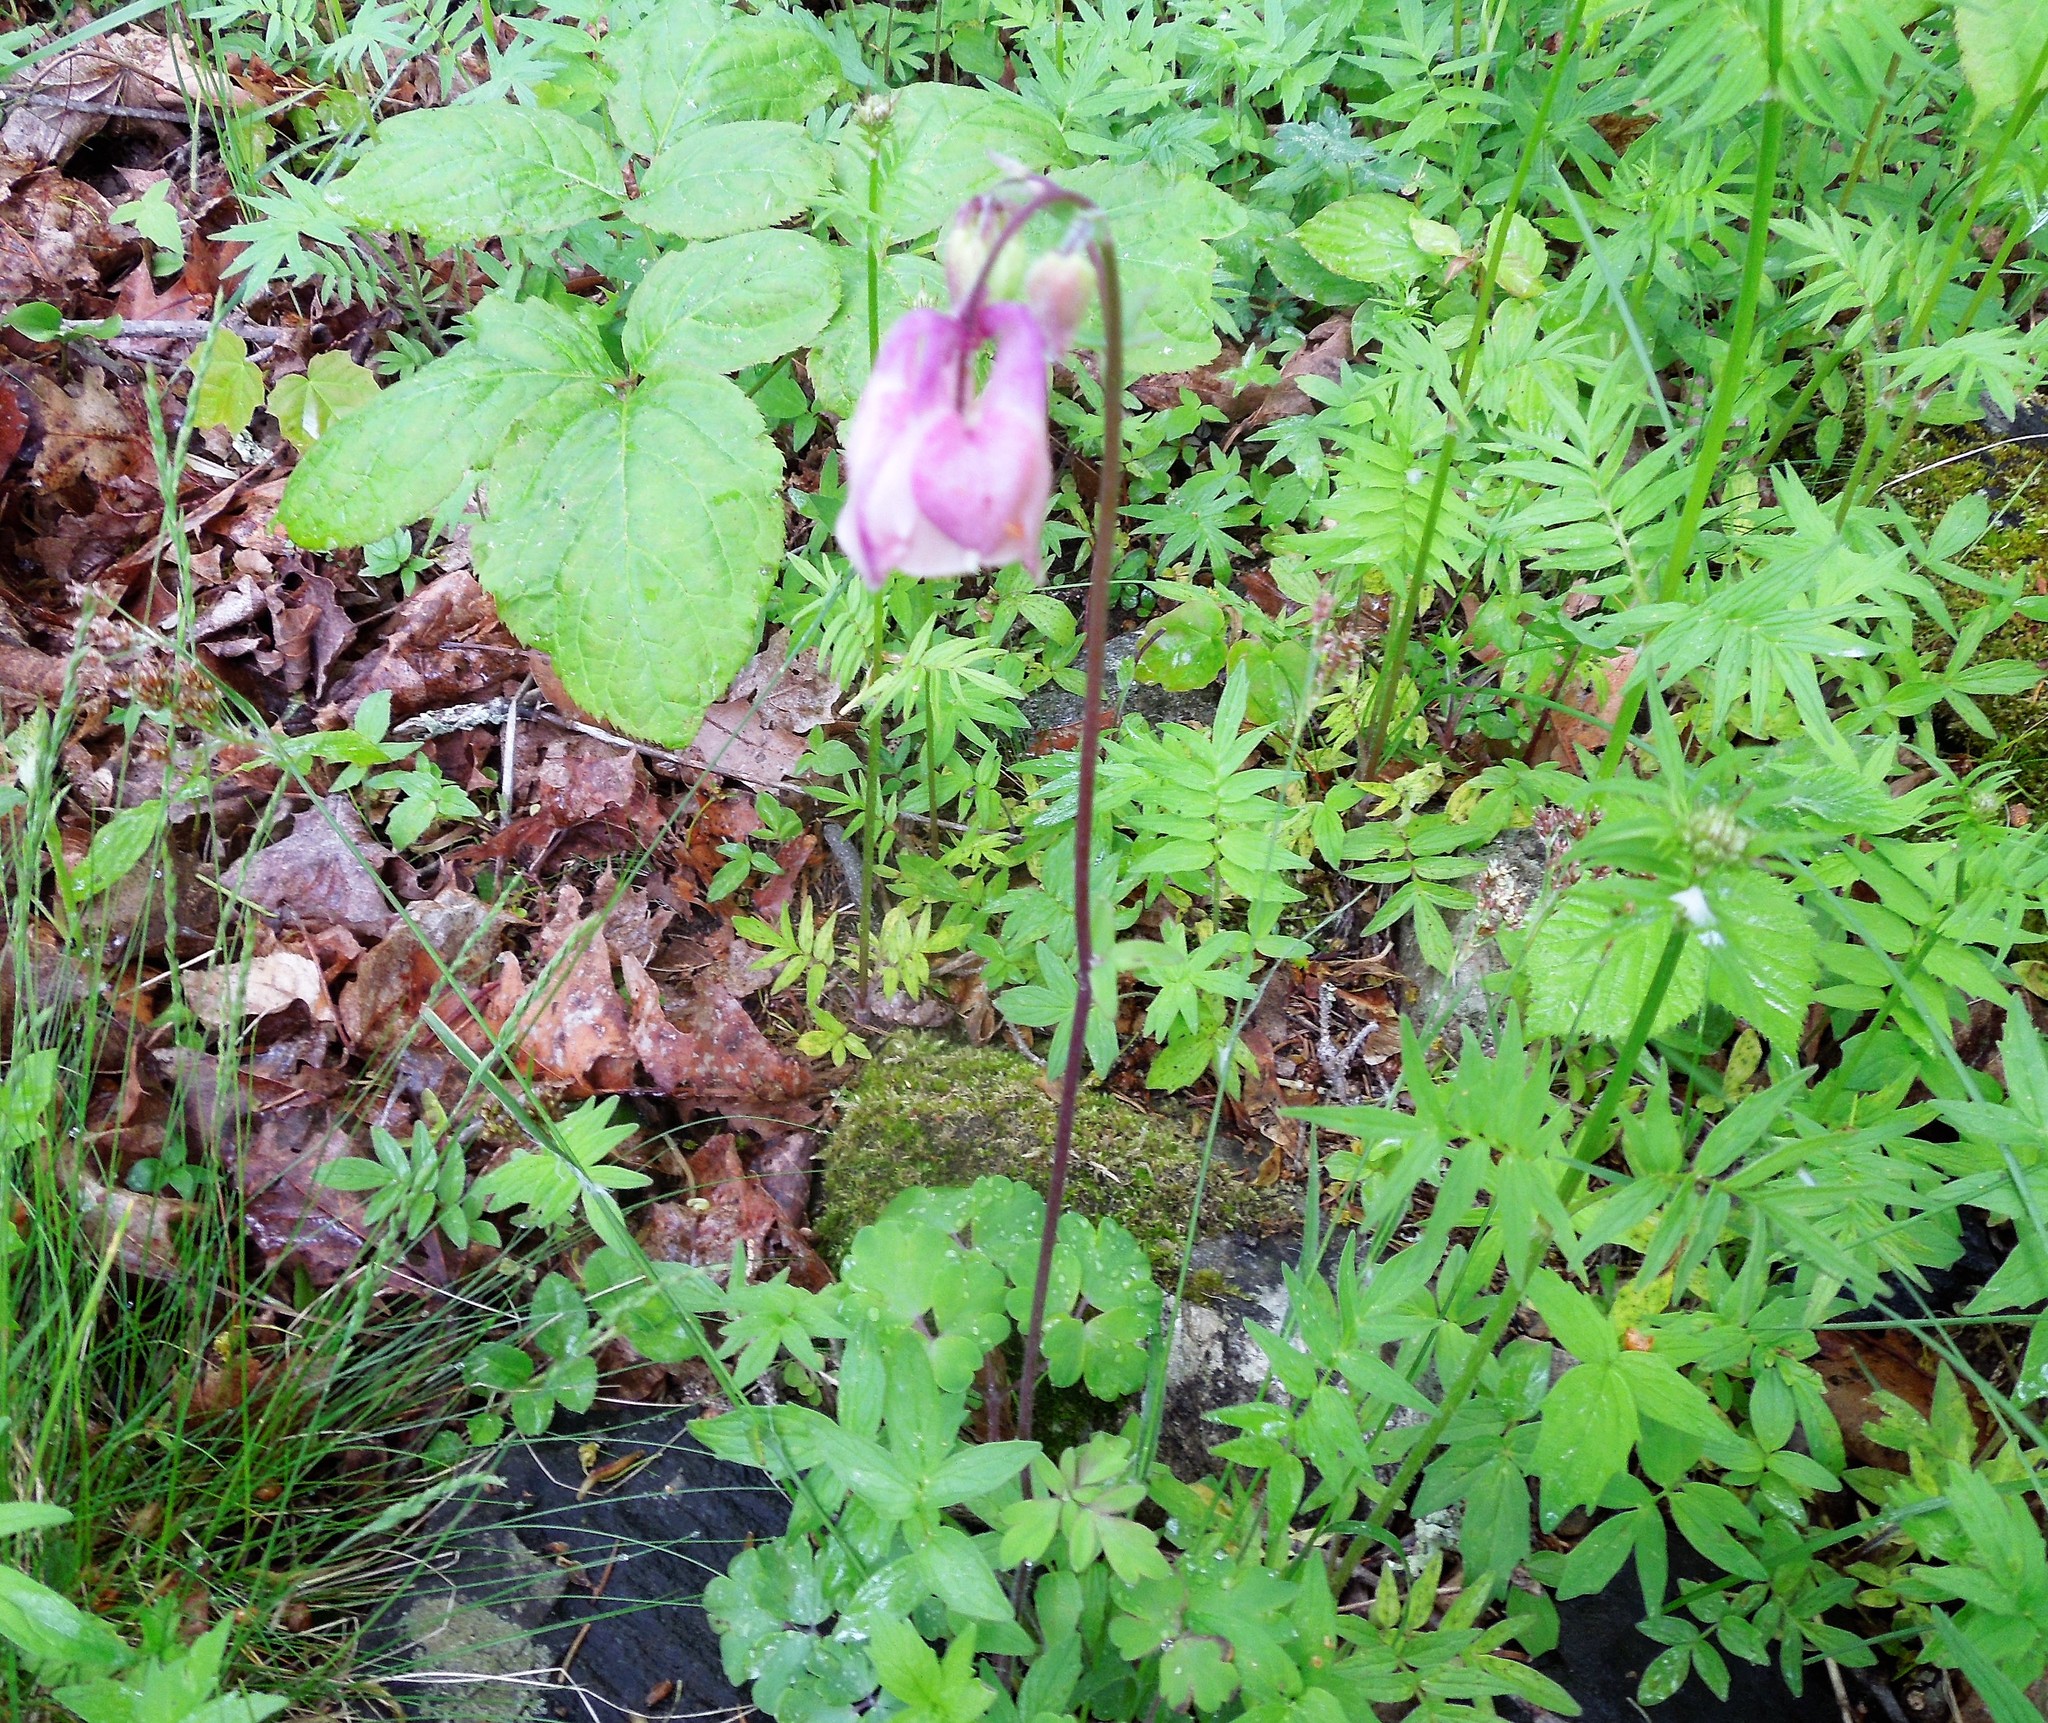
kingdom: Plantae
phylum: Tracheophyta
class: Magnoliopsida
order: Ranunculales
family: Ranunculaceae
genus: Aquilegia
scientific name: Aquilegia vulgaris
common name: Columbine
